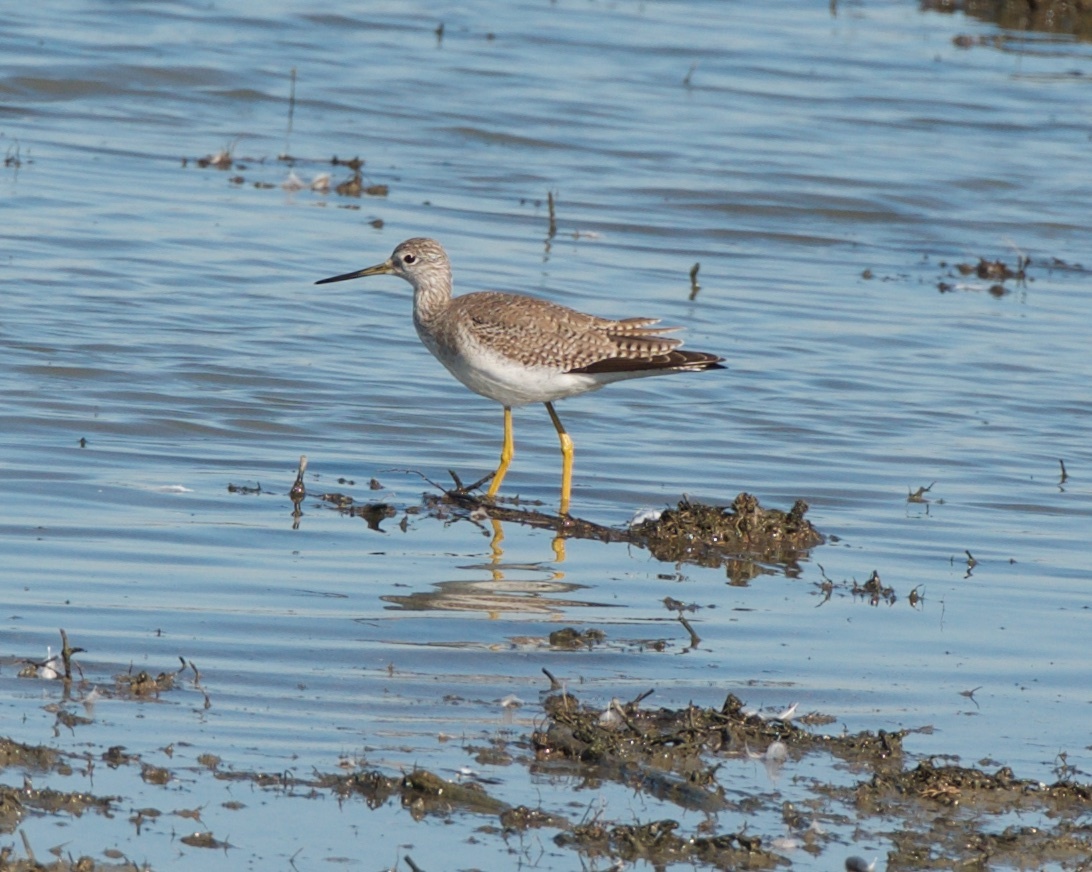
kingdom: Animalia
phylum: Chordata
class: Aves
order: Charadriiformes
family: Scolopacidae
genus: Tringa
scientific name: Tringa melanoleuca
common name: Greater yellowlegs
